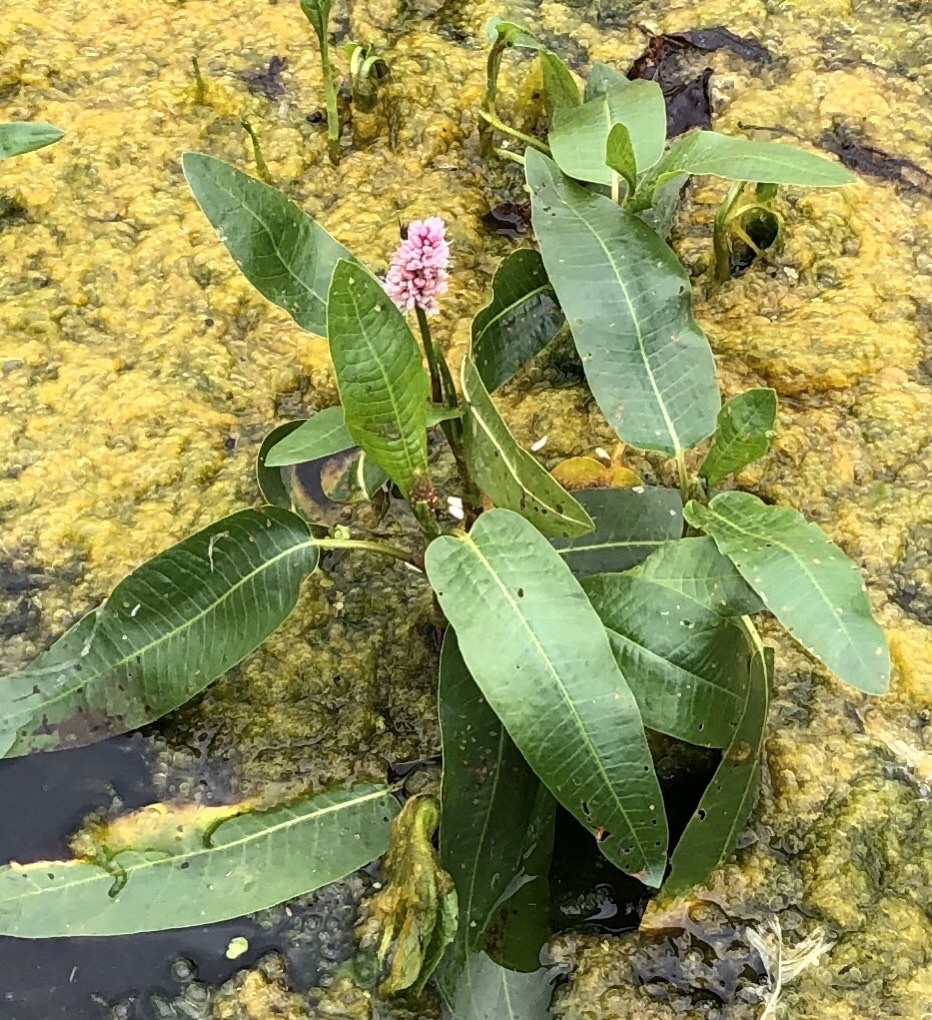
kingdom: Plantae
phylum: Tracheophyta
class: Magnoliopsida
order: Caryophyllales
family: Polygonaceae
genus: Persicaria
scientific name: Persicaria amphibia
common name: Amphibious bistort
